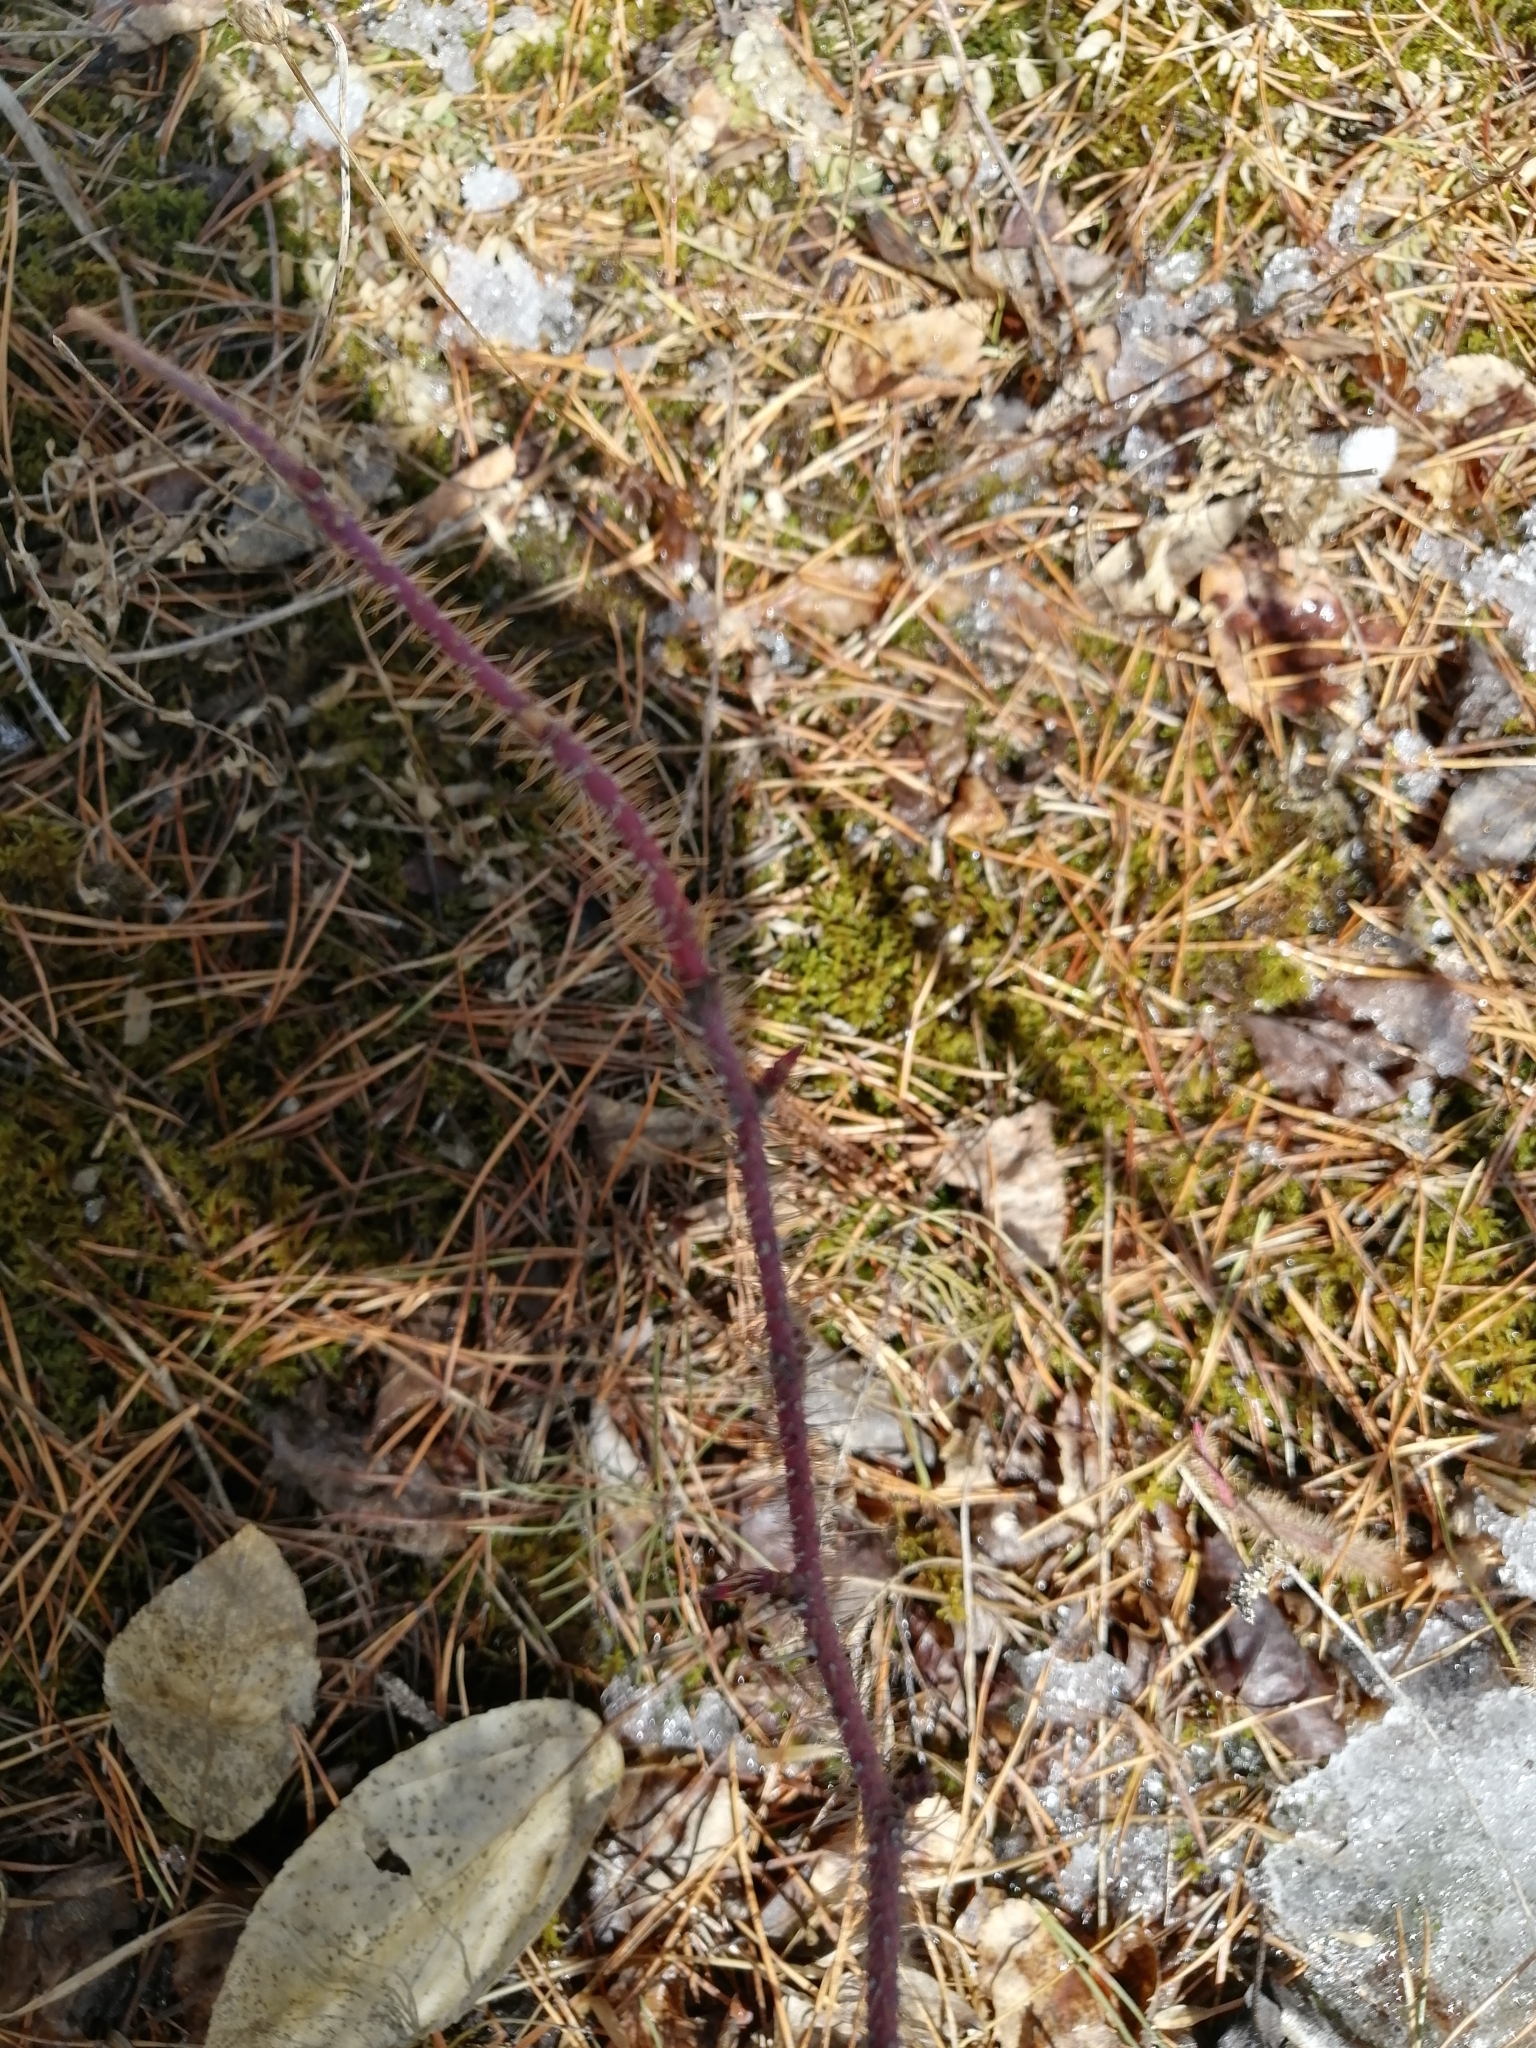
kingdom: Plantae
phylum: Tracheophyta
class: Magnoliopsida
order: Rosales
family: Rosaceae
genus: Rosa
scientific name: Rosa acicularis
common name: Prickly rose
